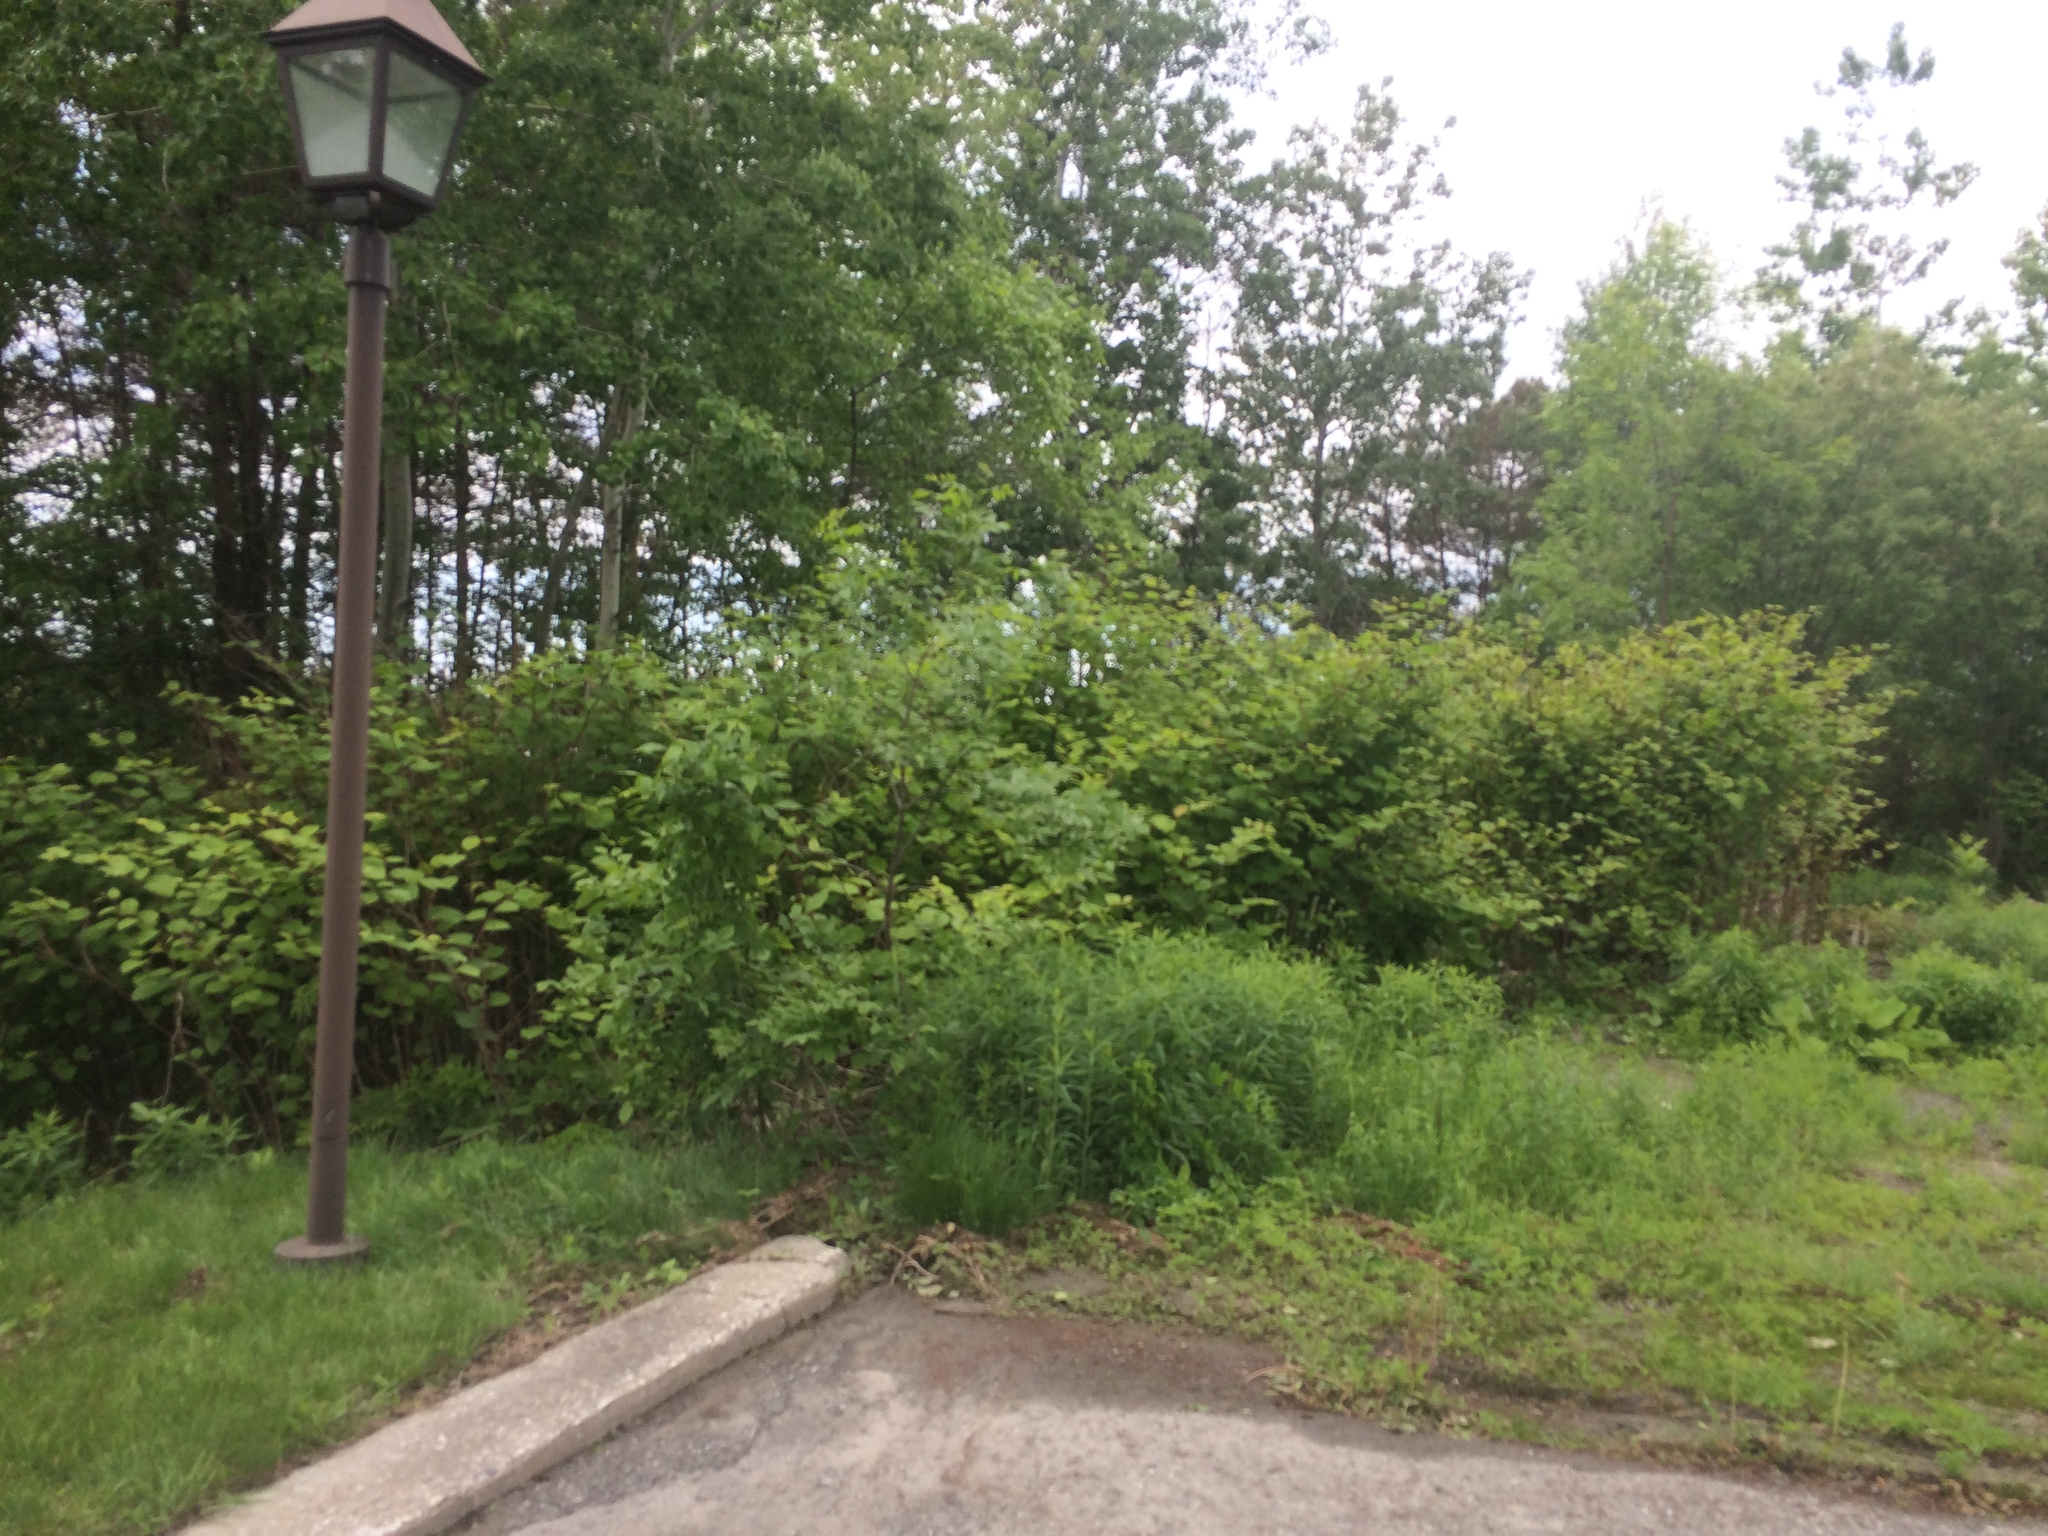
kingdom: Plantae
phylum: Tracheophyta
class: Magnoliopsida
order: Caryophyllales
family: Polygonaceae
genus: Reynoutria
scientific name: Reynoutria japonica
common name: Japanese knotweed
